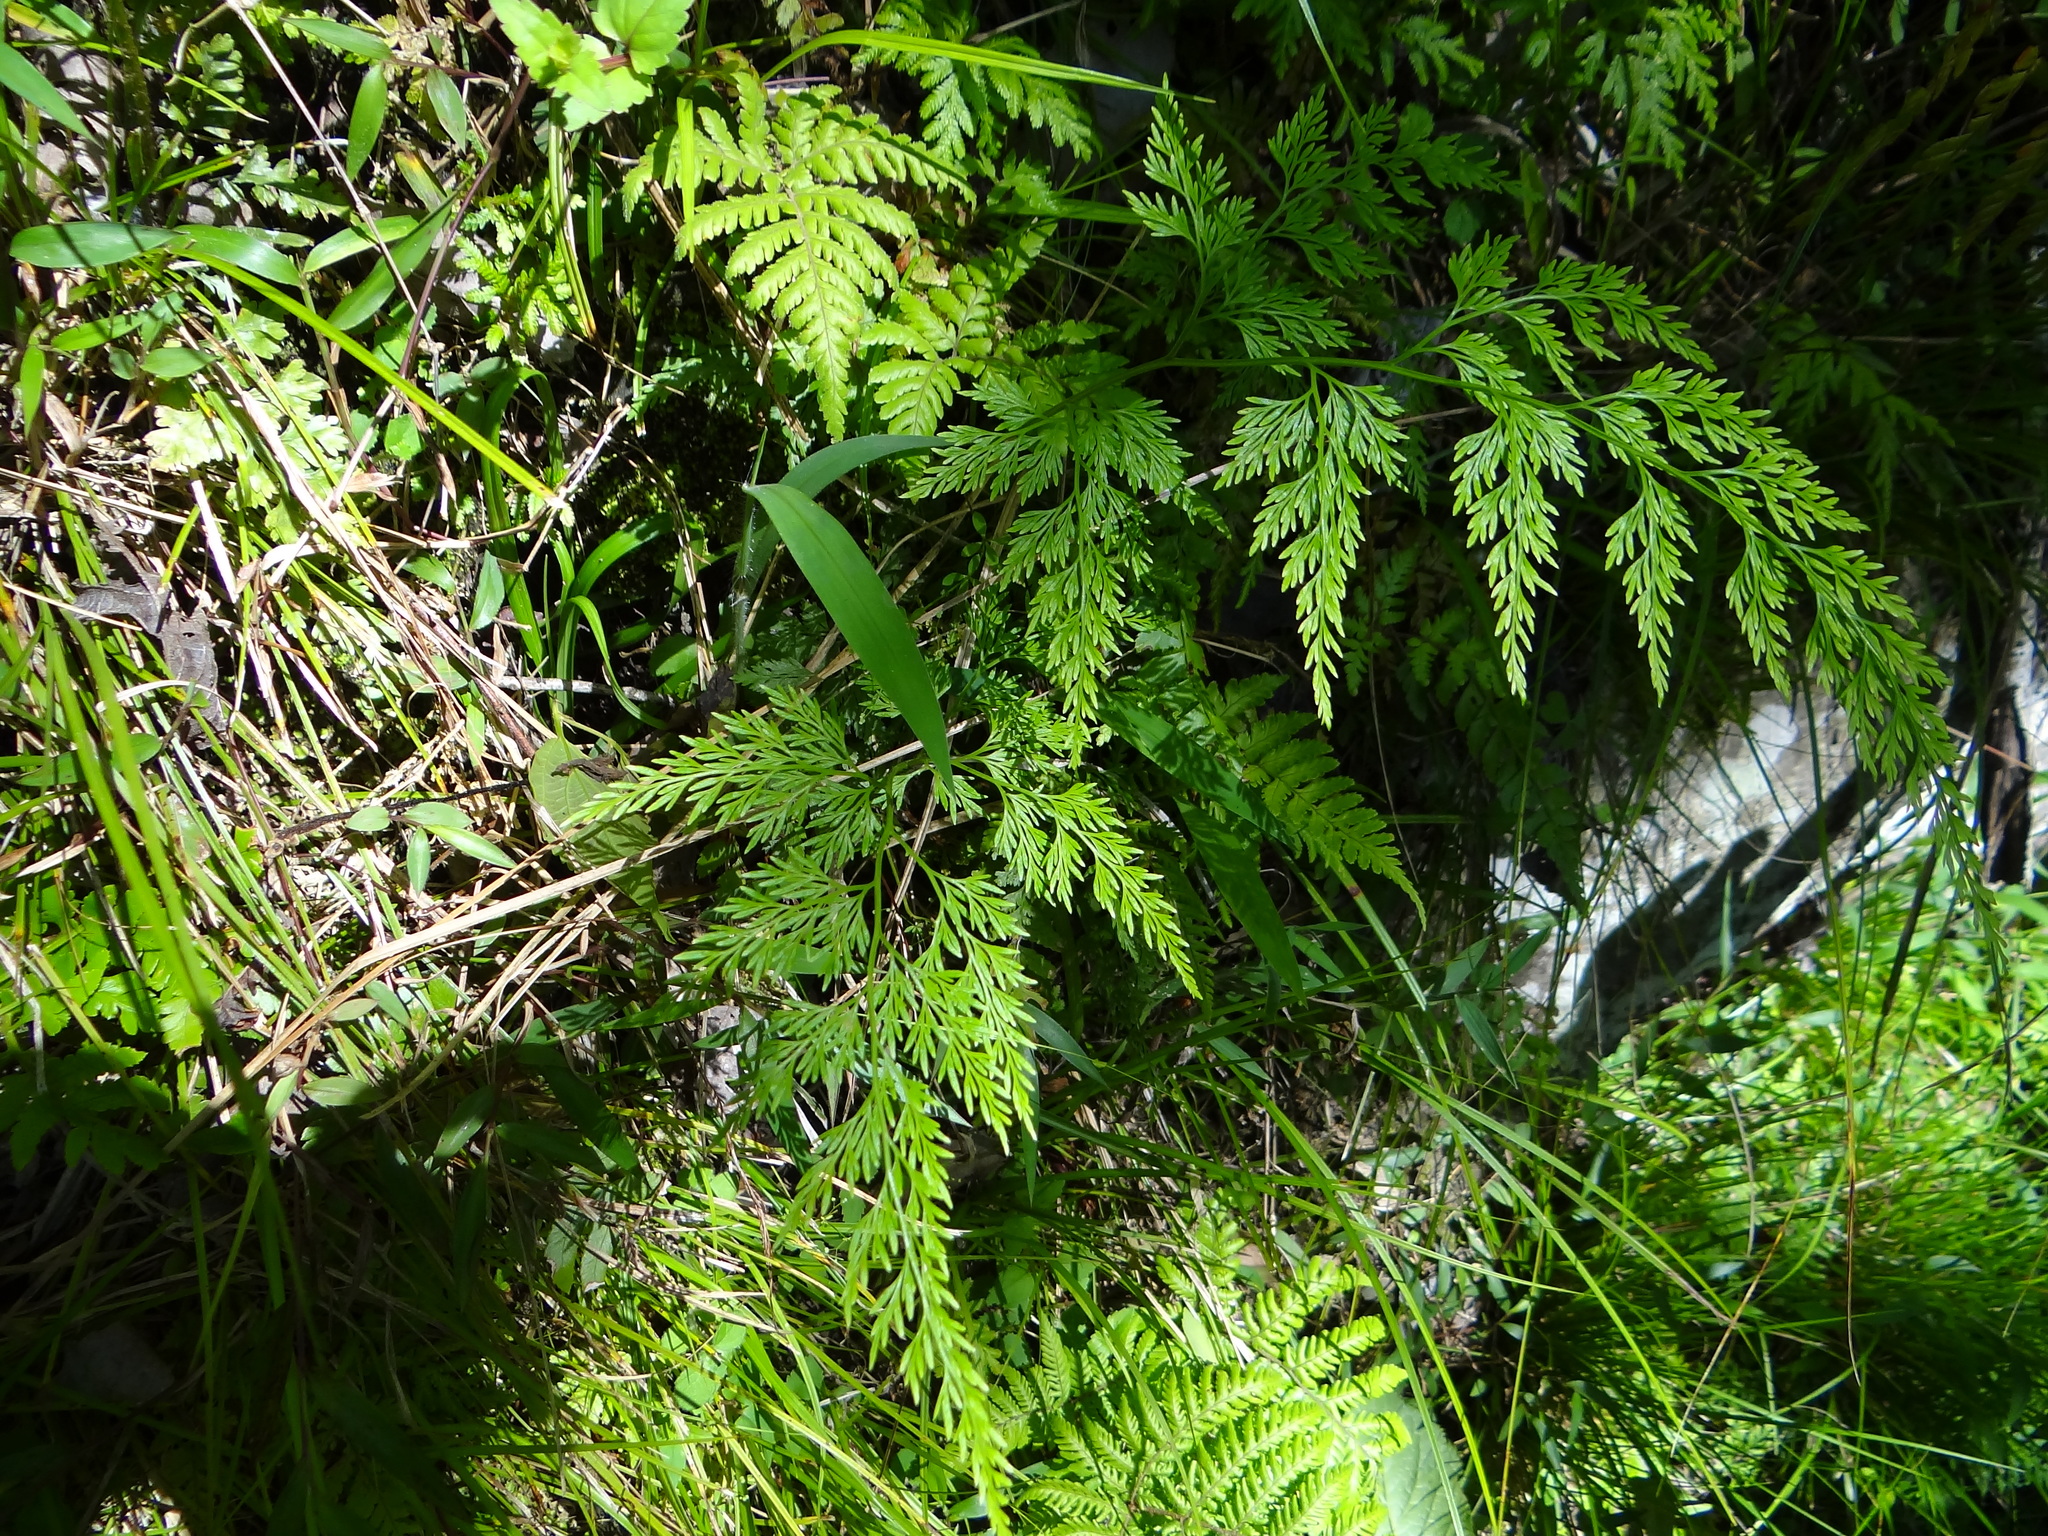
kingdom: Plantae
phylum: Tracheophyta
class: Polypodiopsida
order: Polypodiales
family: Pteridaceae
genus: Onychium
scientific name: Onychium japonicum
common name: Carrot fern
